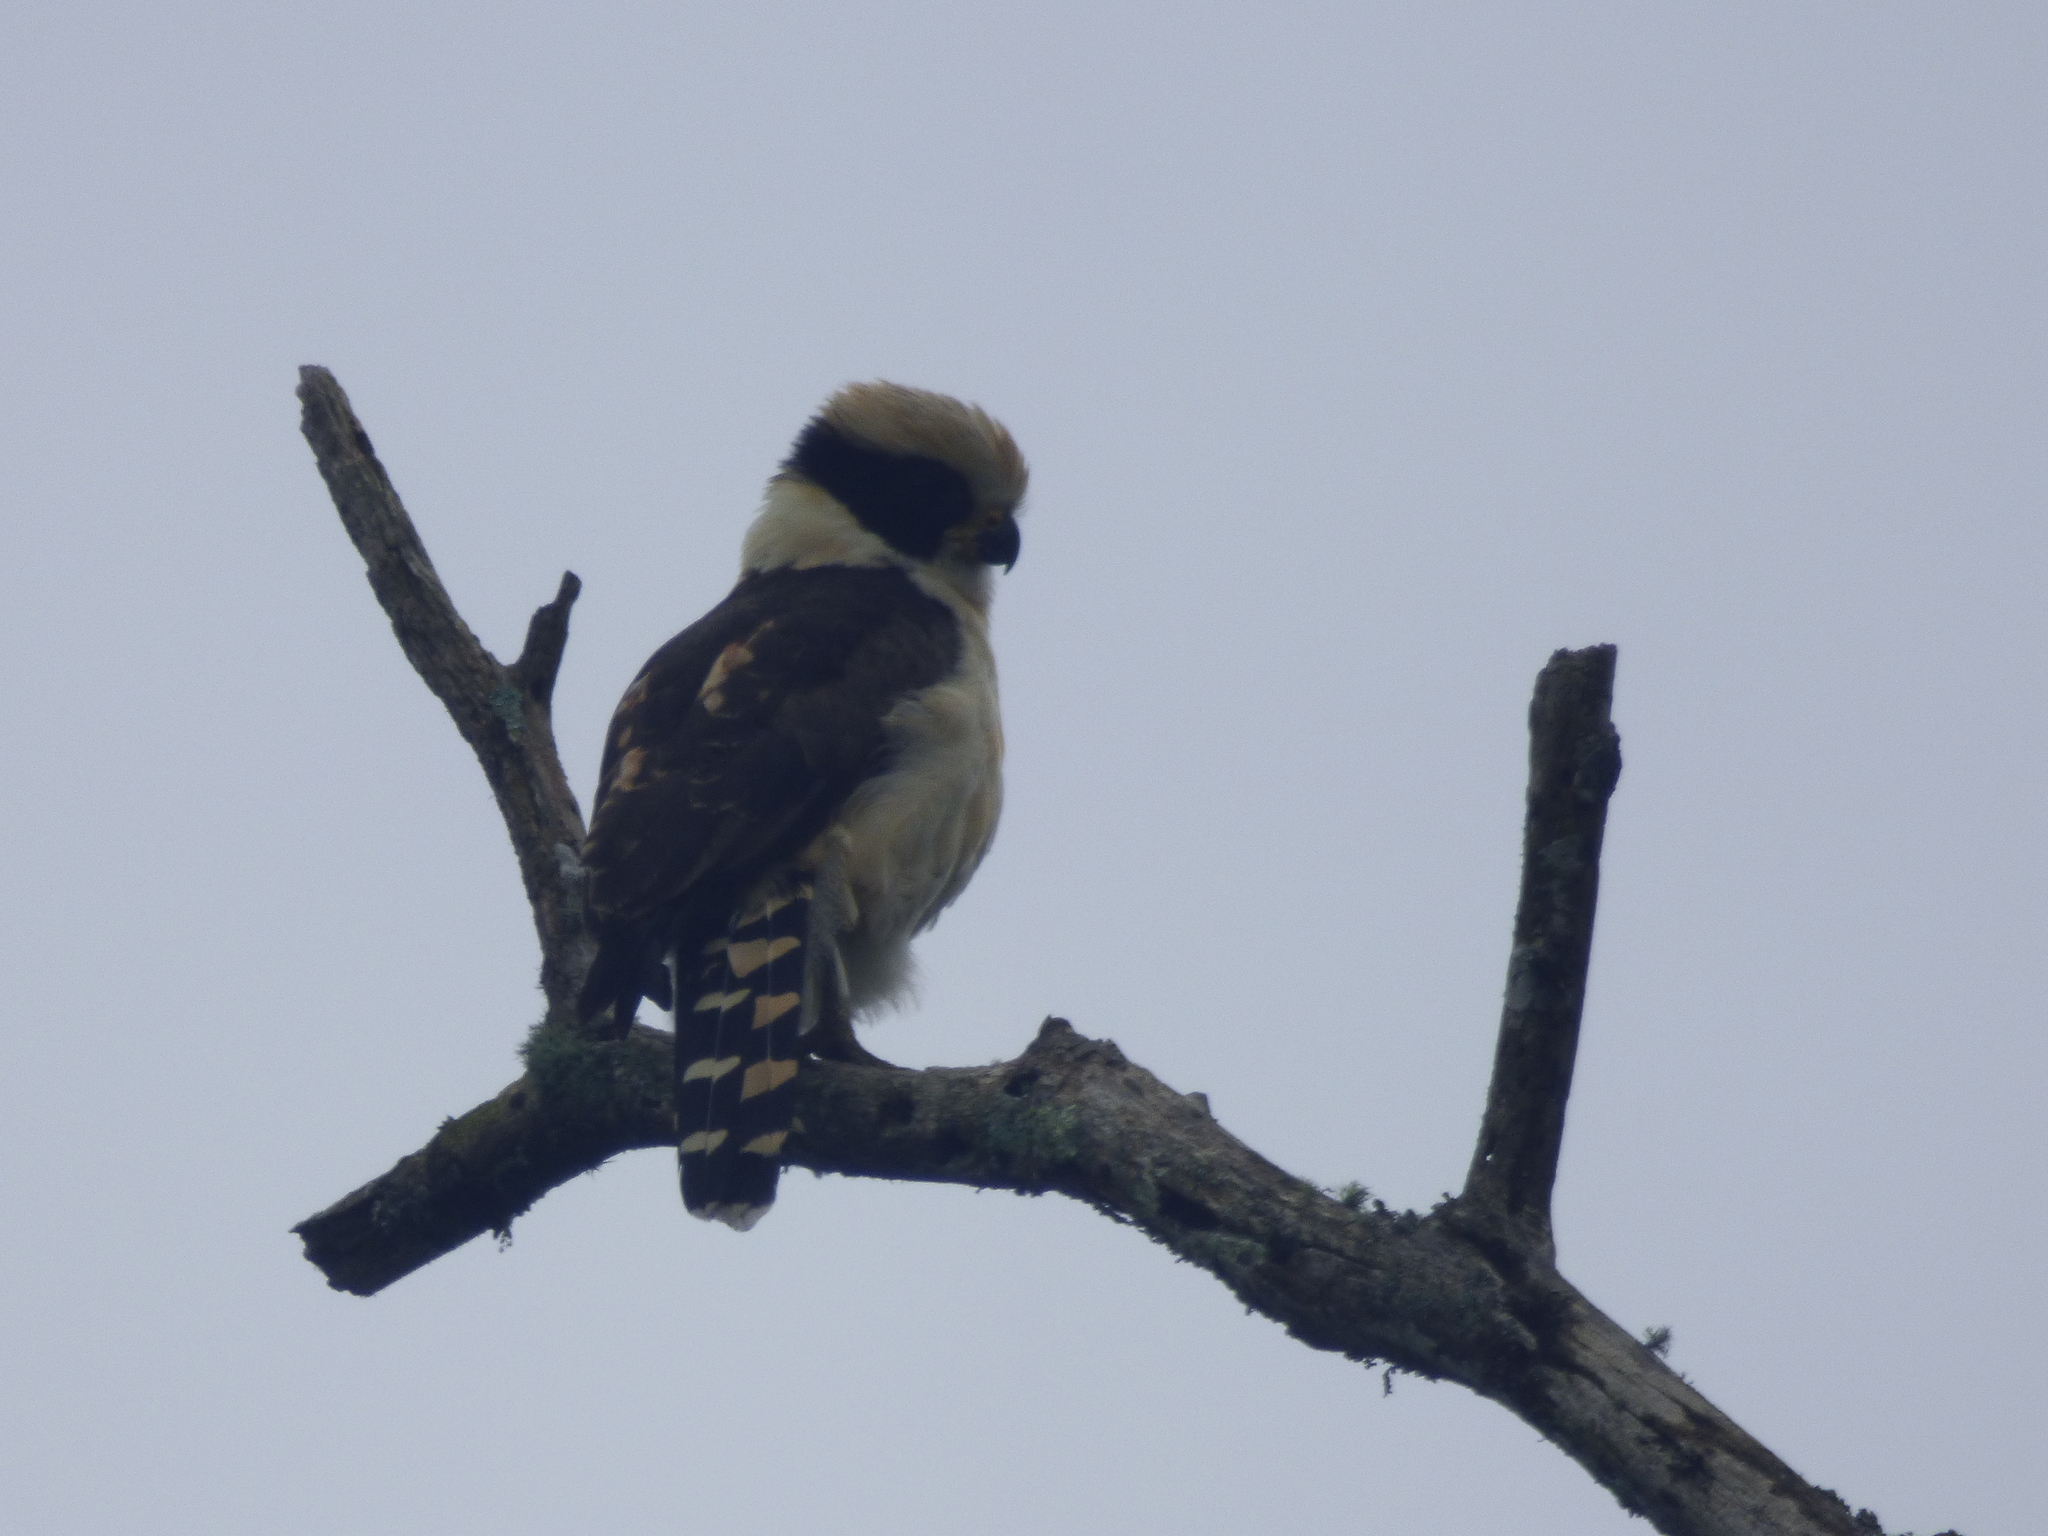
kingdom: Animalia
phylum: Chordata
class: Aves
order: Falconiformes
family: Falconidae
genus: Herpetotheres
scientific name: Herpetotheres cachinnans
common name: Laughing falcon
